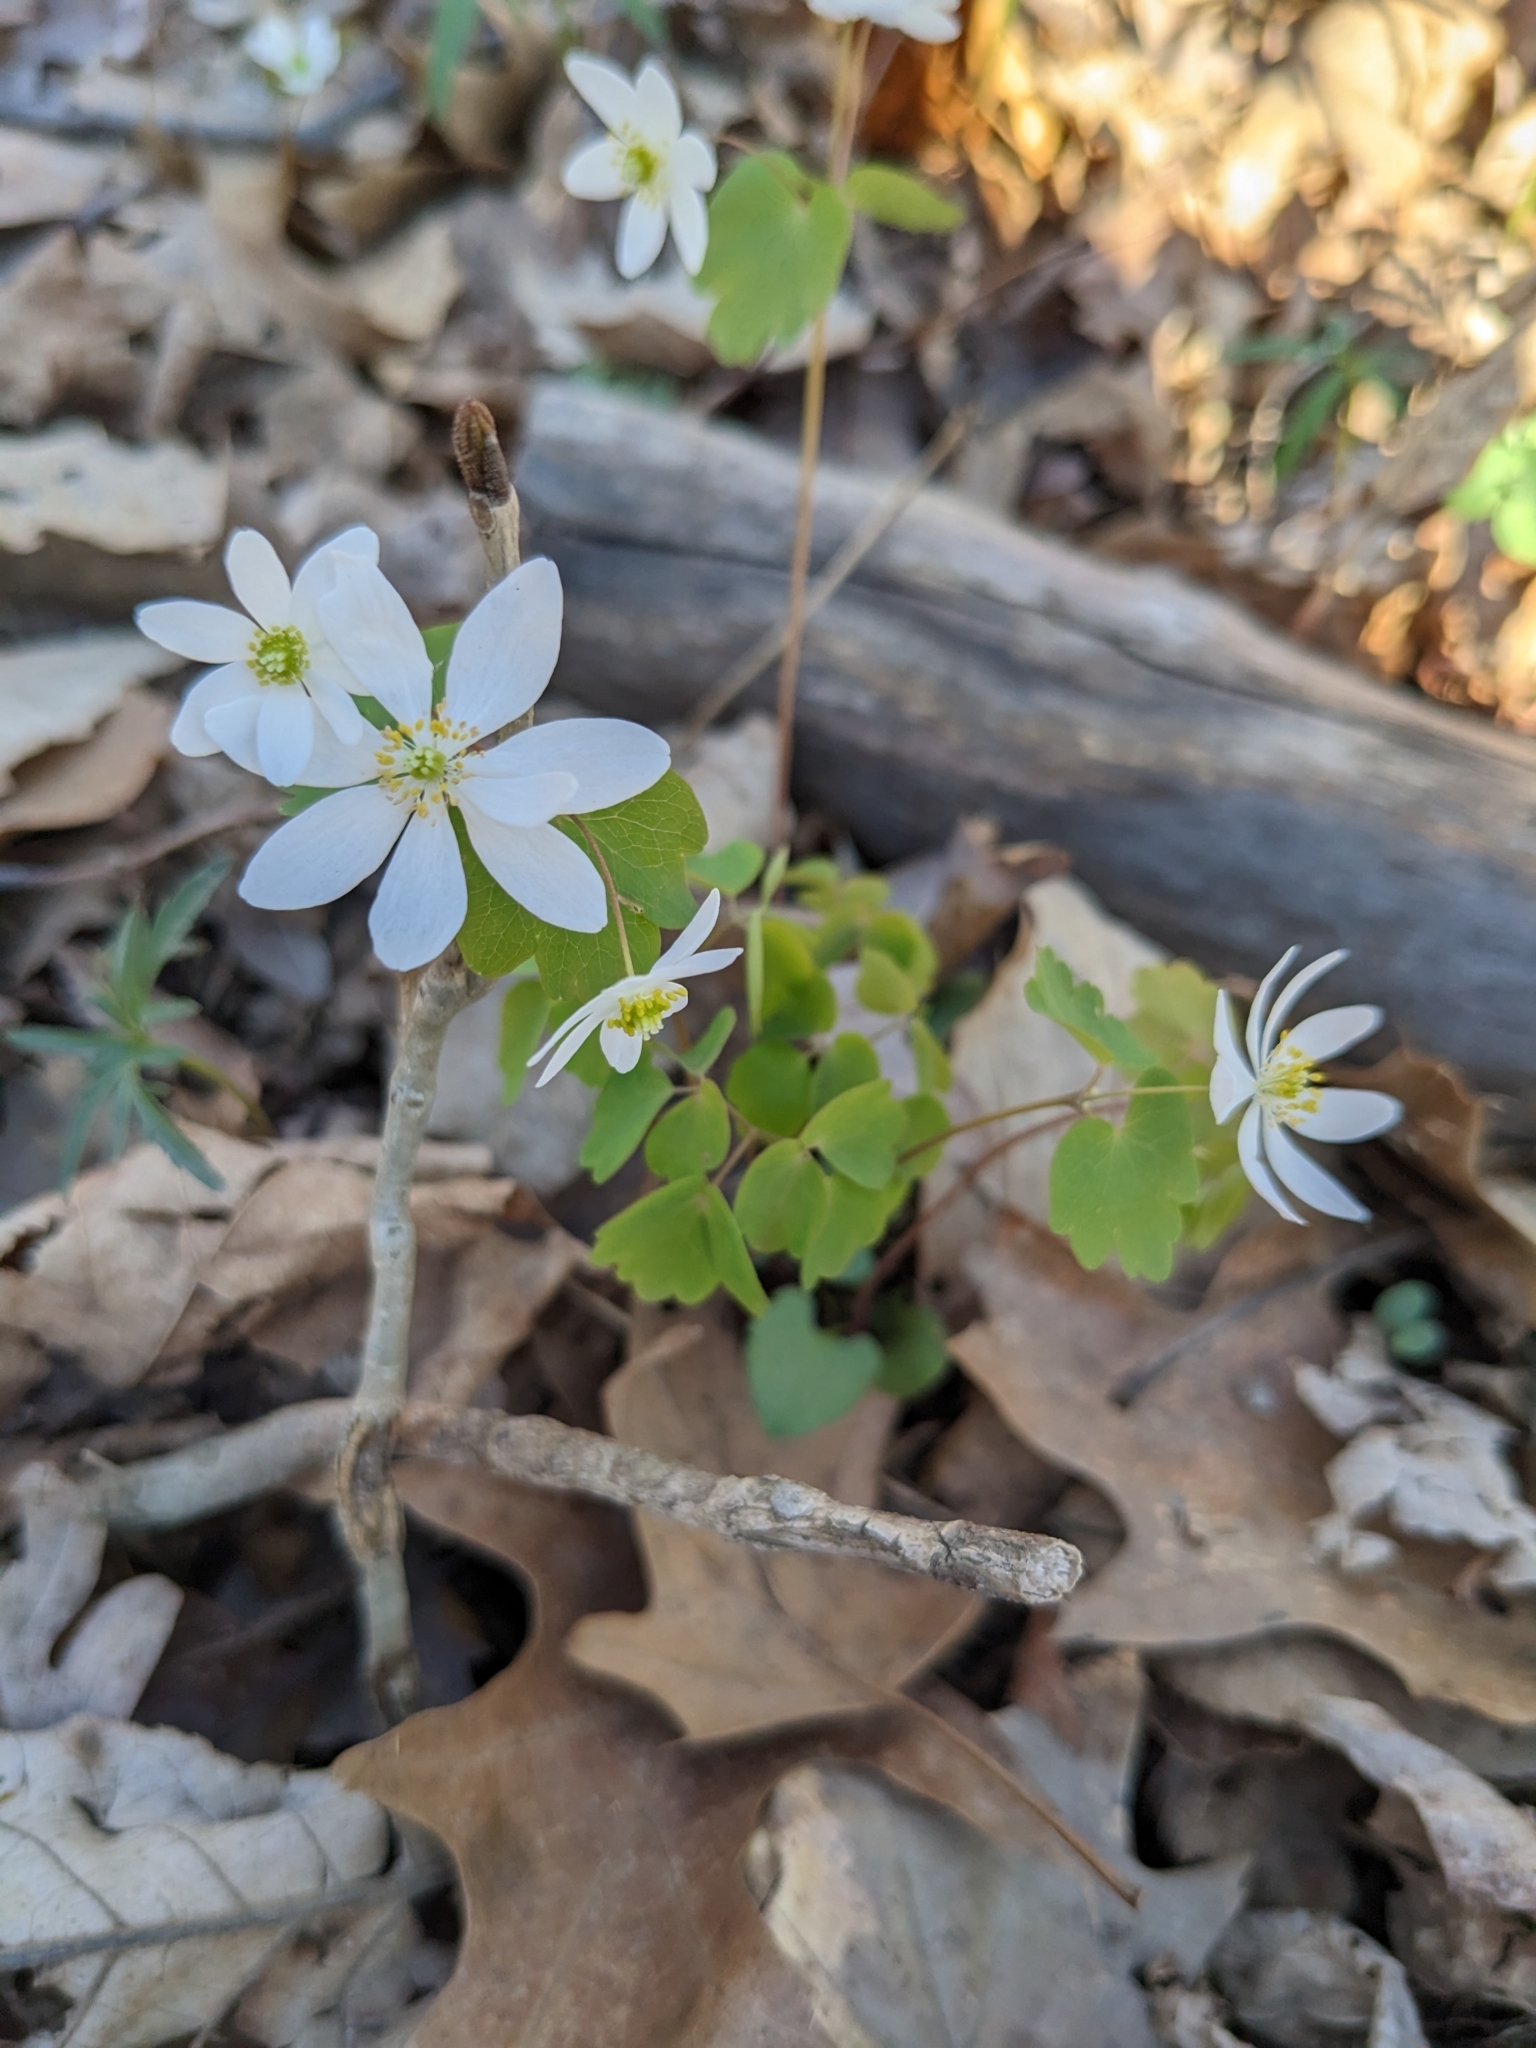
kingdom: Plantae
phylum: Tracheophyta
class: Magnoliopsida
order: Ranunculales
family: Ranunculaceae
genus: Thalictrum
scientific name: Thalictrum thalictroides
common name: Rue-anemone
